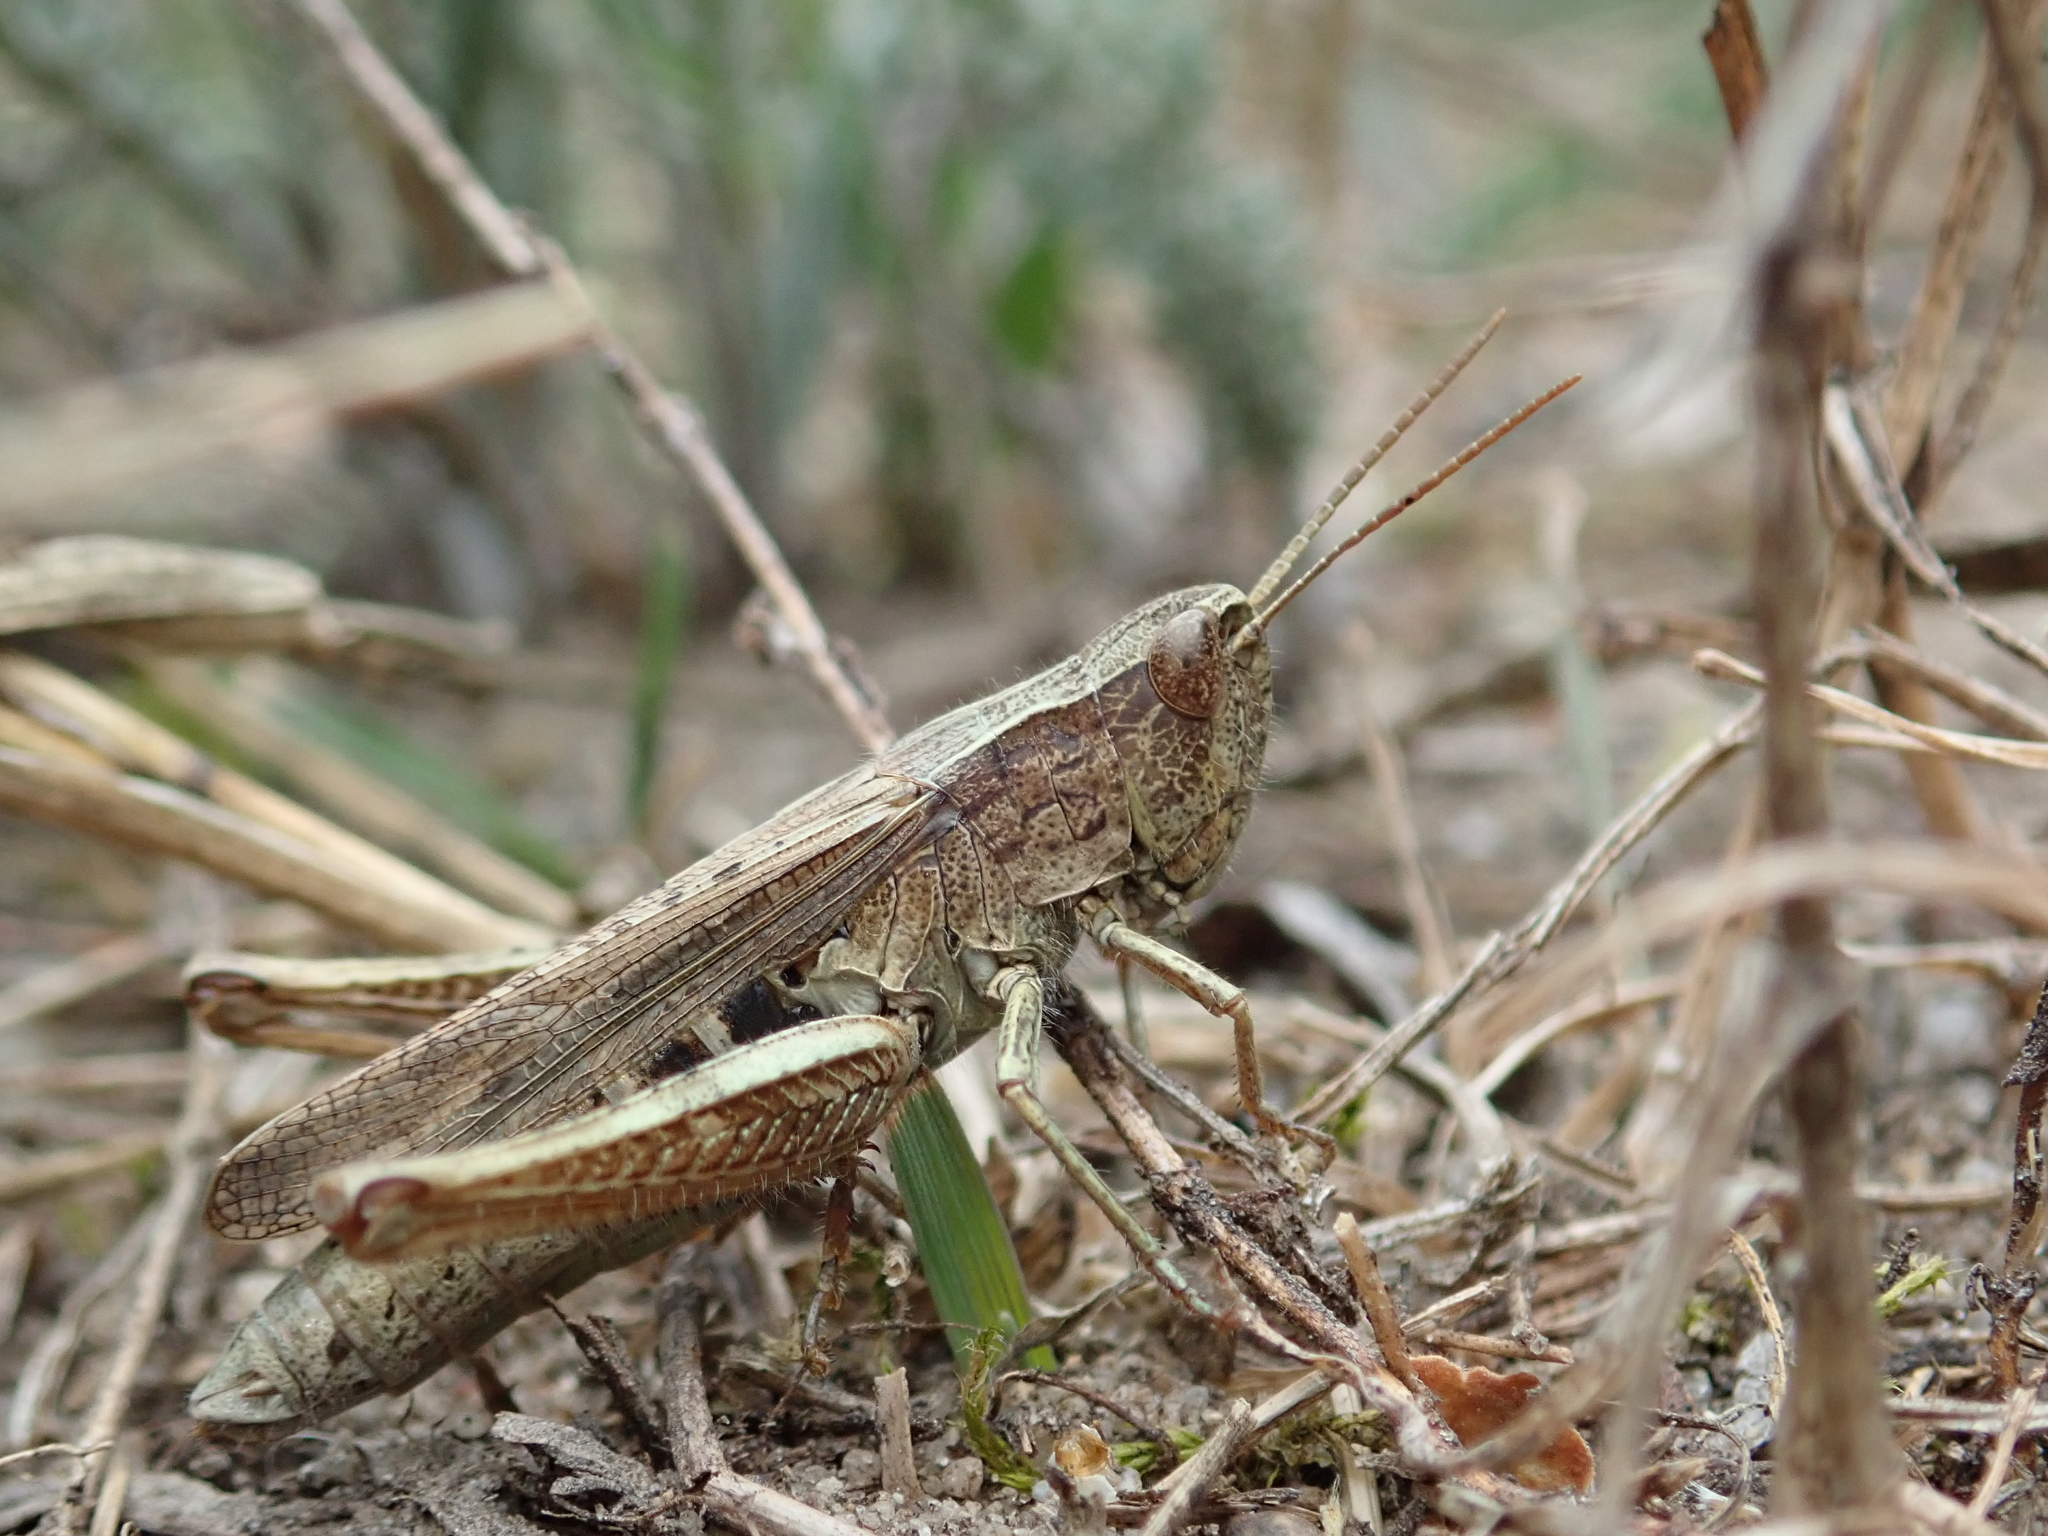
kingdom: Animalia
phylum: Arthropoda
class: Insecta
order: Orthoptera
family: Acrididae
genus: Chorthippus
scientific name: Chorthippus dorsatus
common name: Steppe grasshopper
